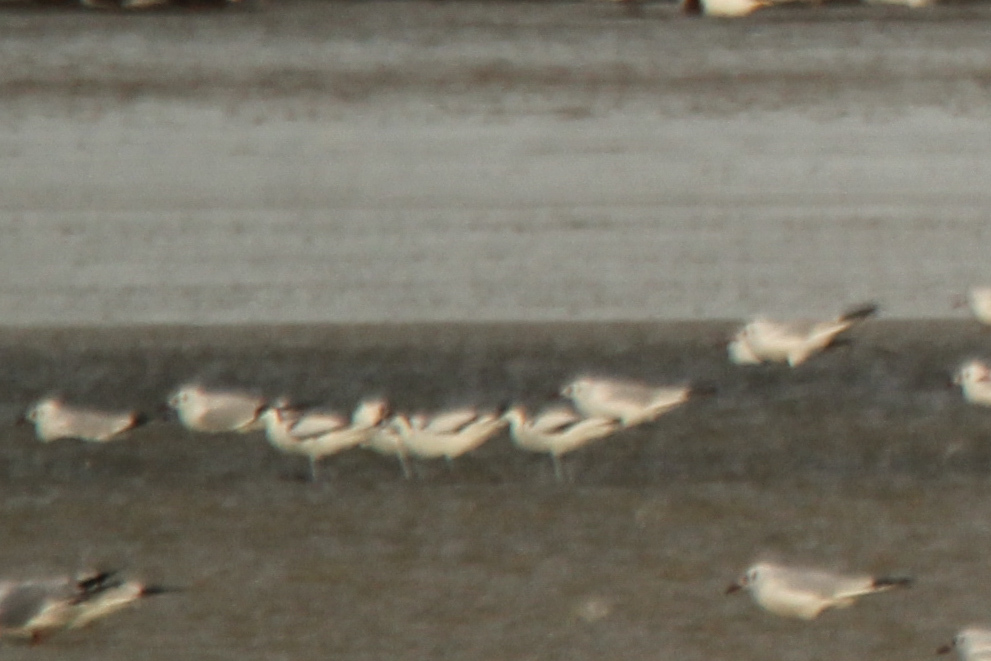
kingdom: Animalia
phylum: Chordata
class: Aves
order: Charadriiformes
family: Recurvirostridae
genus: Recurvirostra
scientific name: Recurvirostra avosetta
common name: Pied avocet
